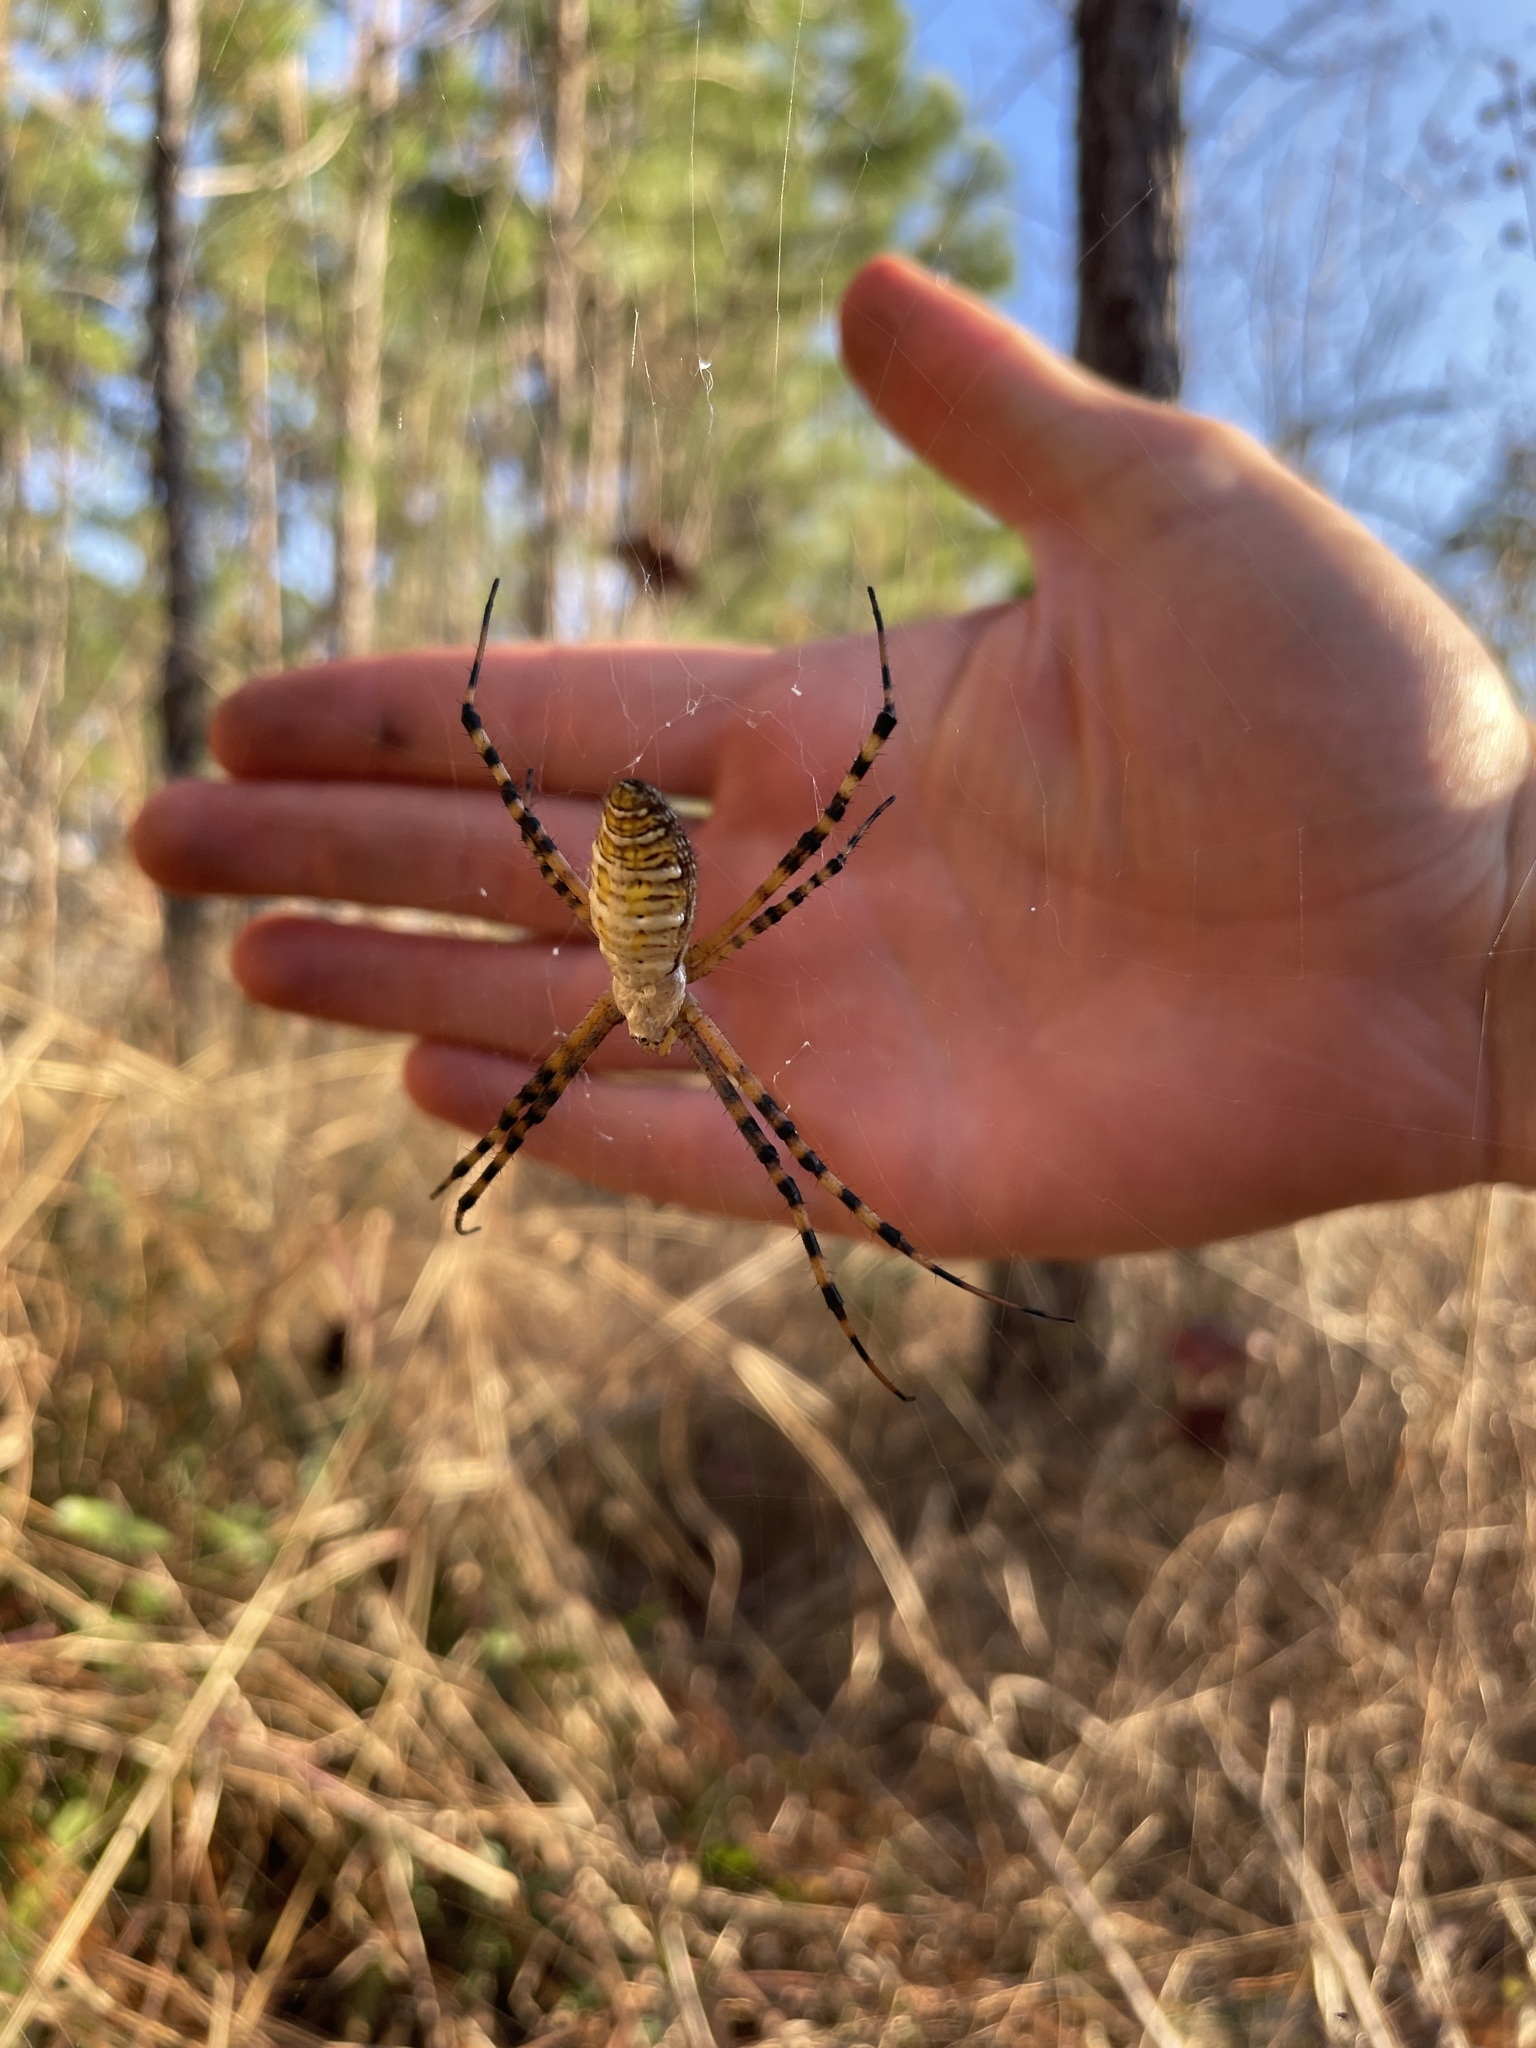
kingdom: Animalia
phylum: Arthropoda
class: Arachnida
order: Araneae
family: Araneidae
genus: Argiope
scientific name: Argiope trifasciata
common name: Banded garden spider
